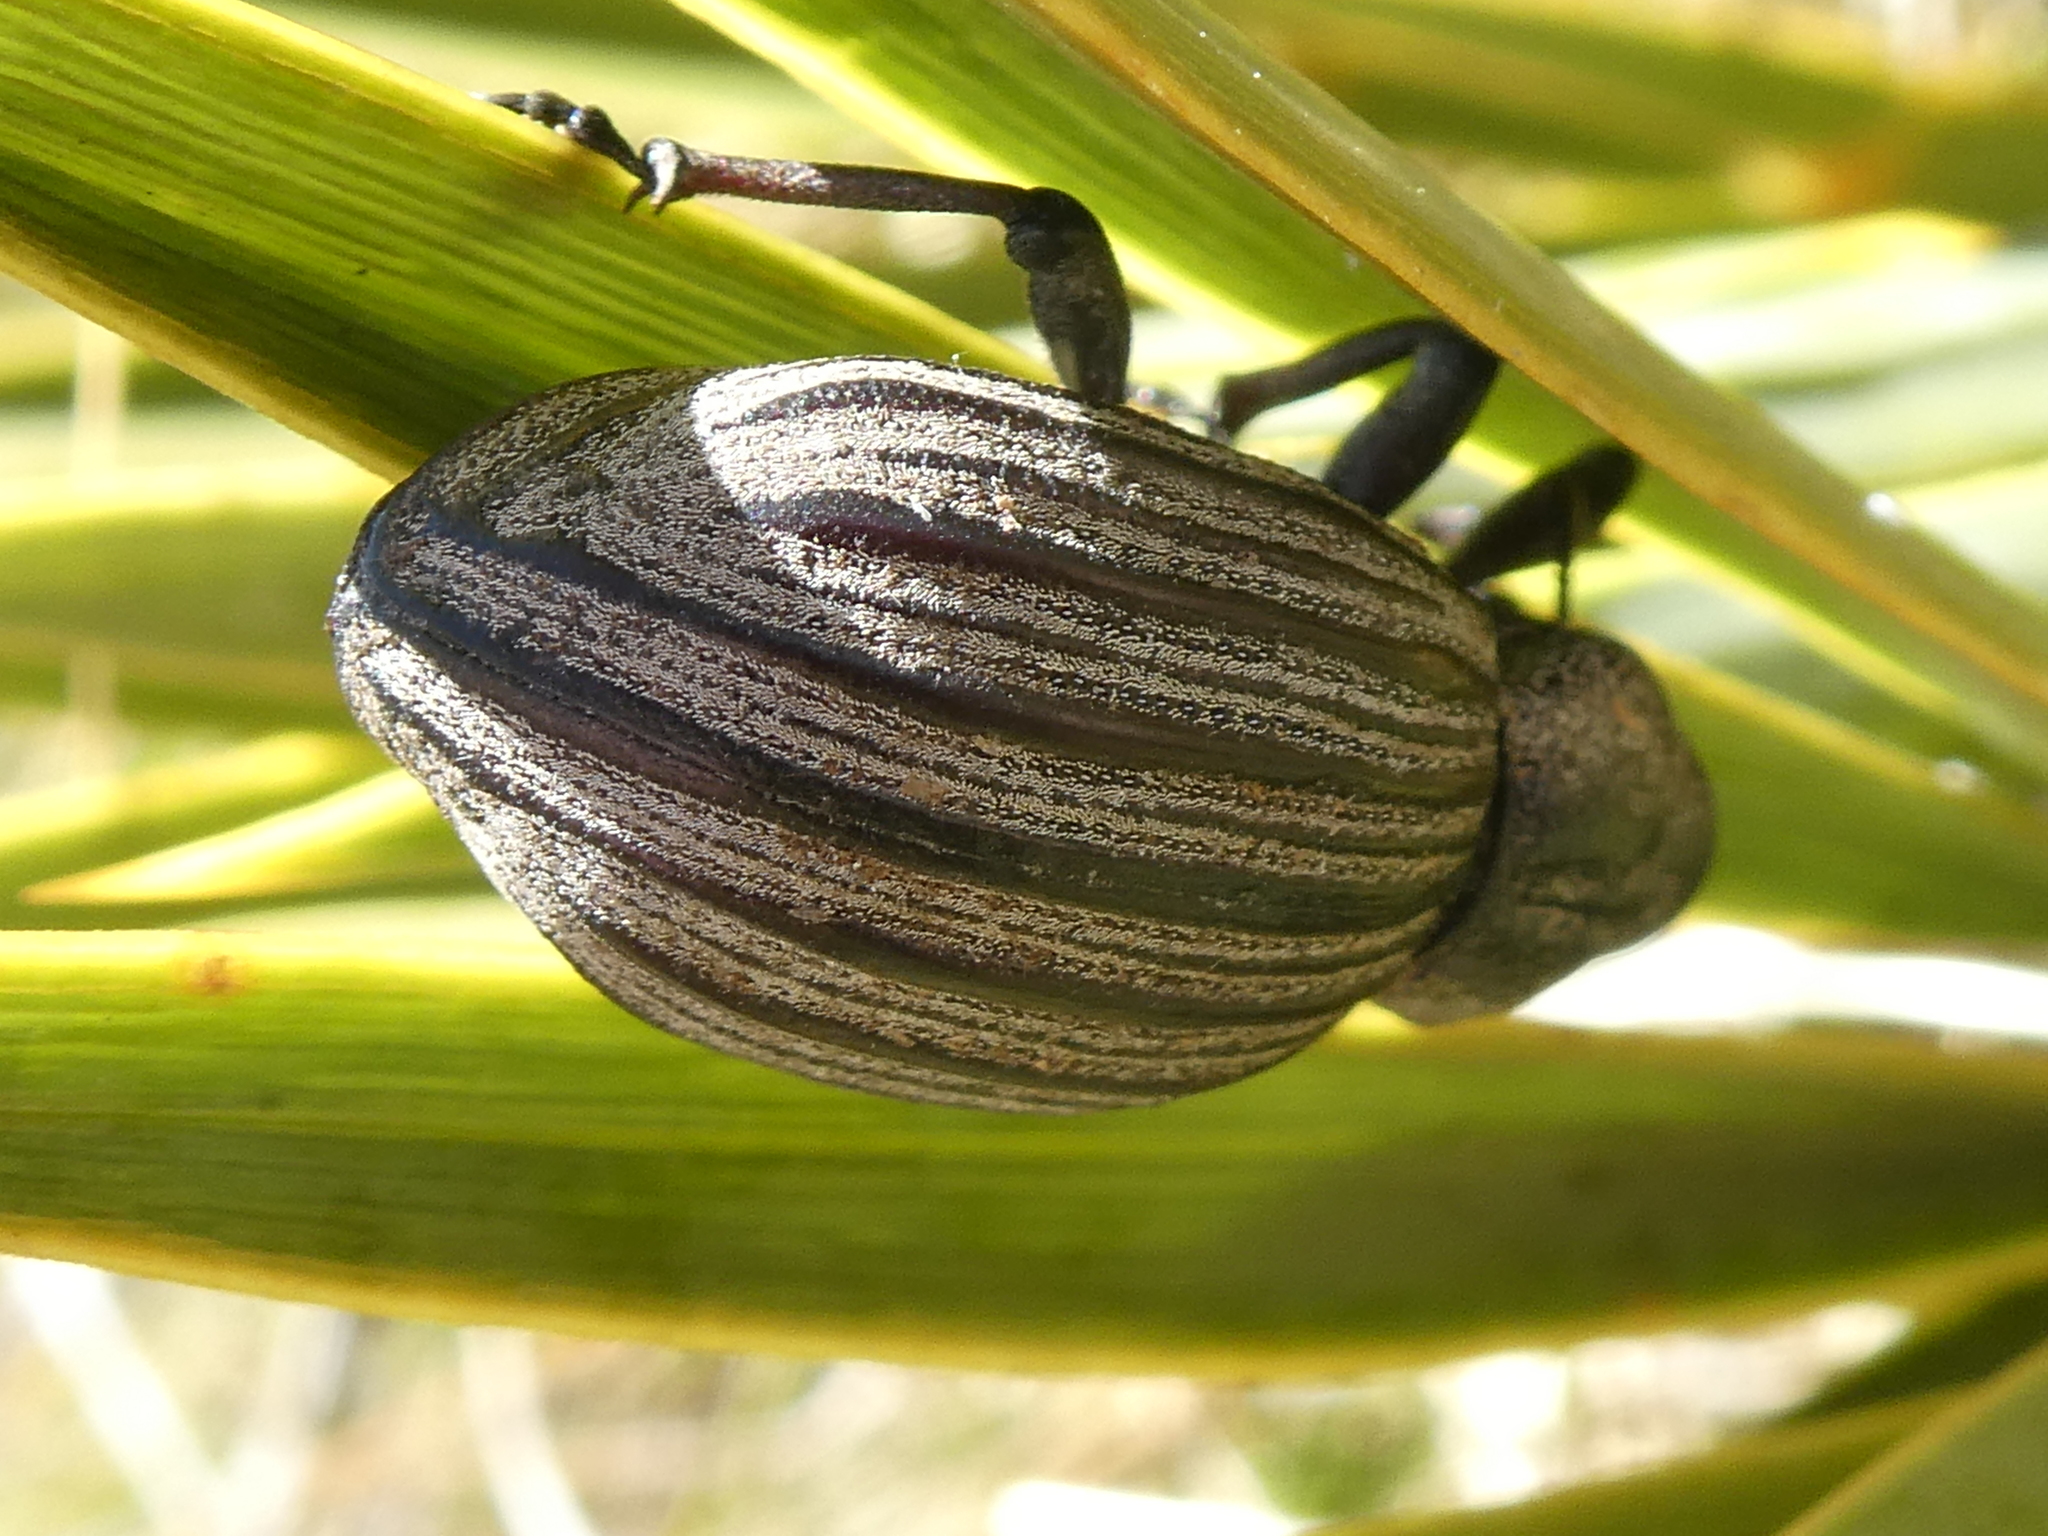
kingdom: Animalia
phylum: Arthropoda
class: Insecta
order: Coleoptera
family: Curculionidae
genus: Lyperobius
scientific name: Lyperobius clarkei
